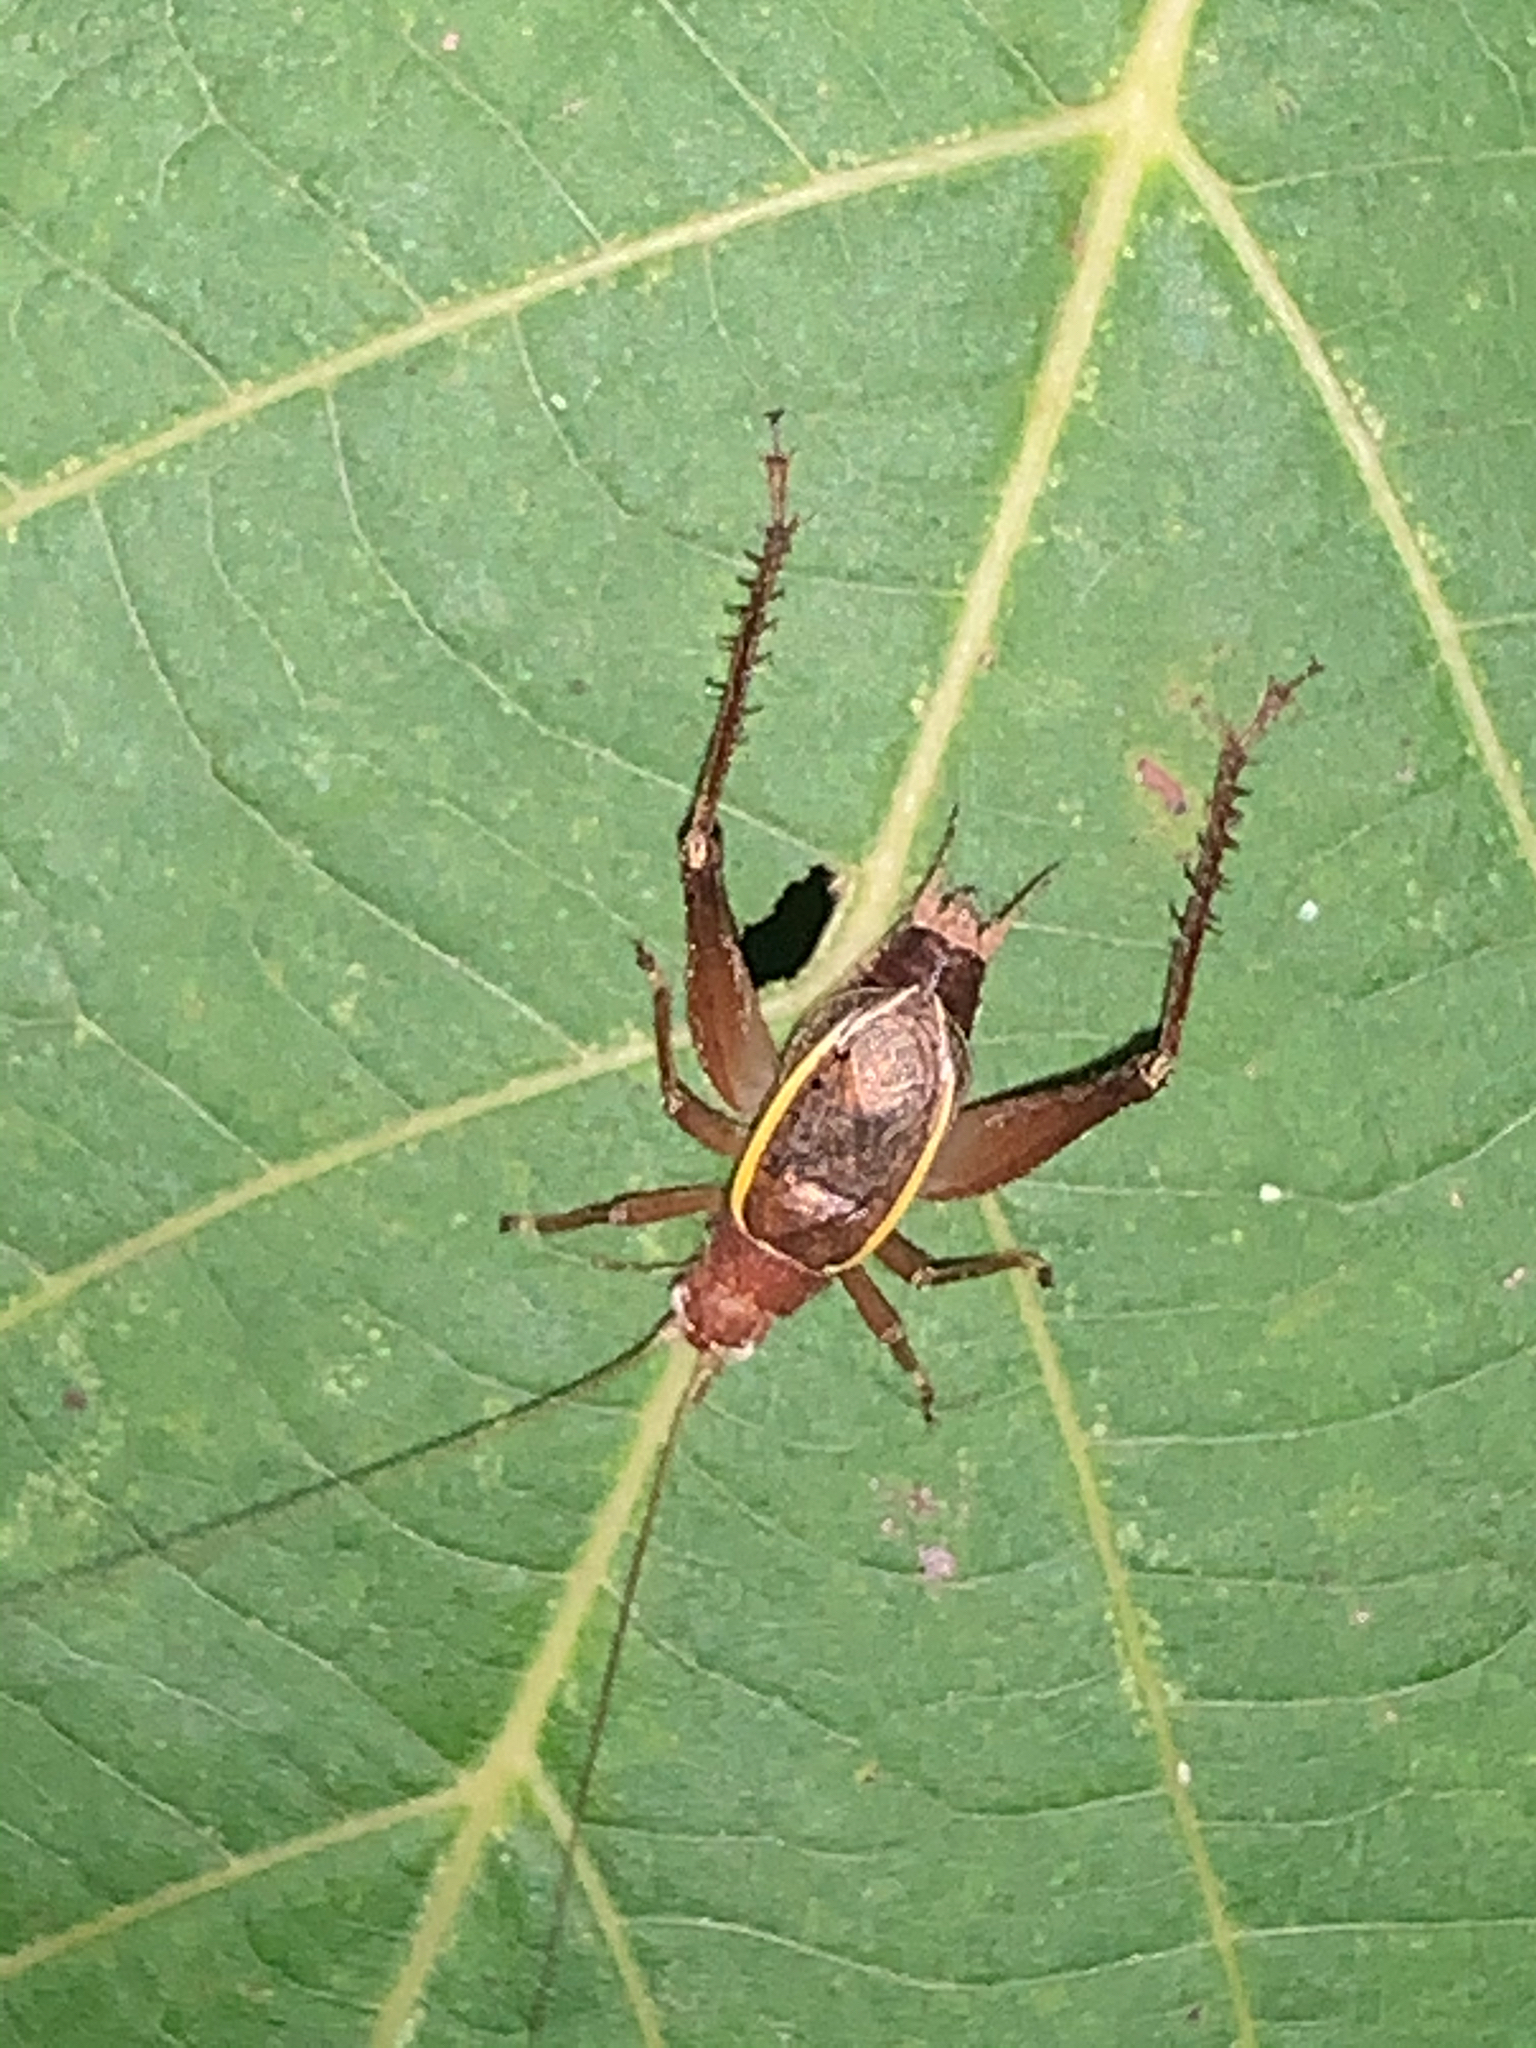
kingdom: Animalia
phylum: Arthropoda
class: Insecta
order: Orthoptera
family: Gryllidae
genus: Hapithus
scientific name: Hapithus agitator
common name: Restless bush cricket
